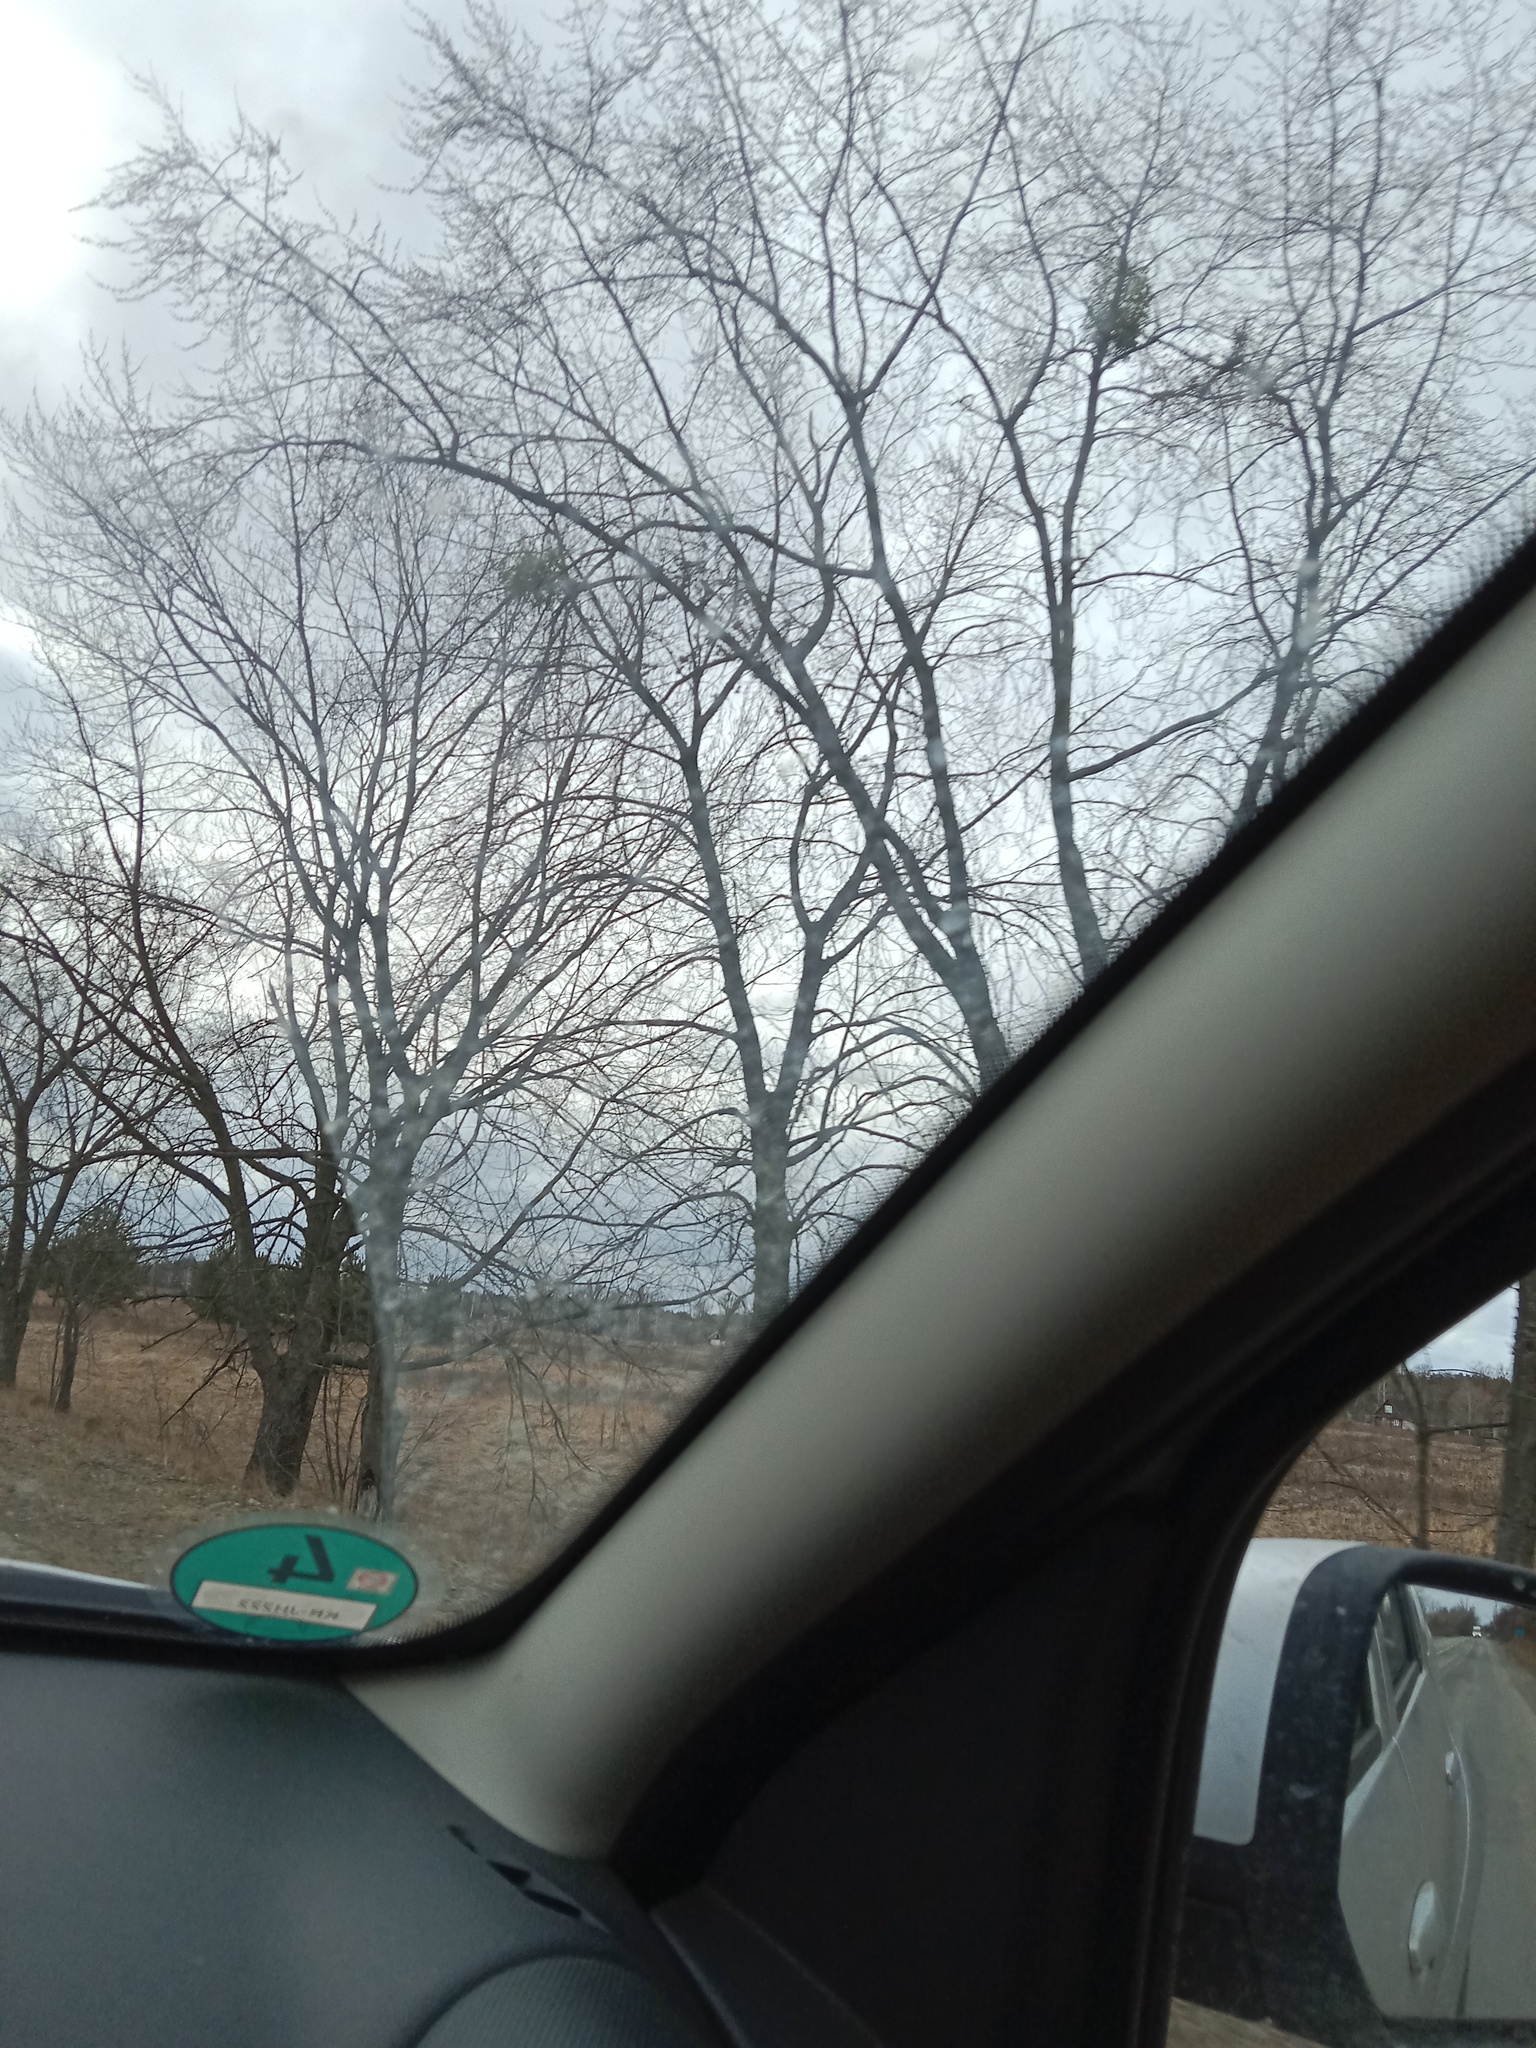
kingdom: Plantae
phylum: Tracheophyta
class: Magnoliopsida
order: Santalales
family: Viscaceae
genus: Viscum
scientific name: Viscum album
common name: Mistletoe
